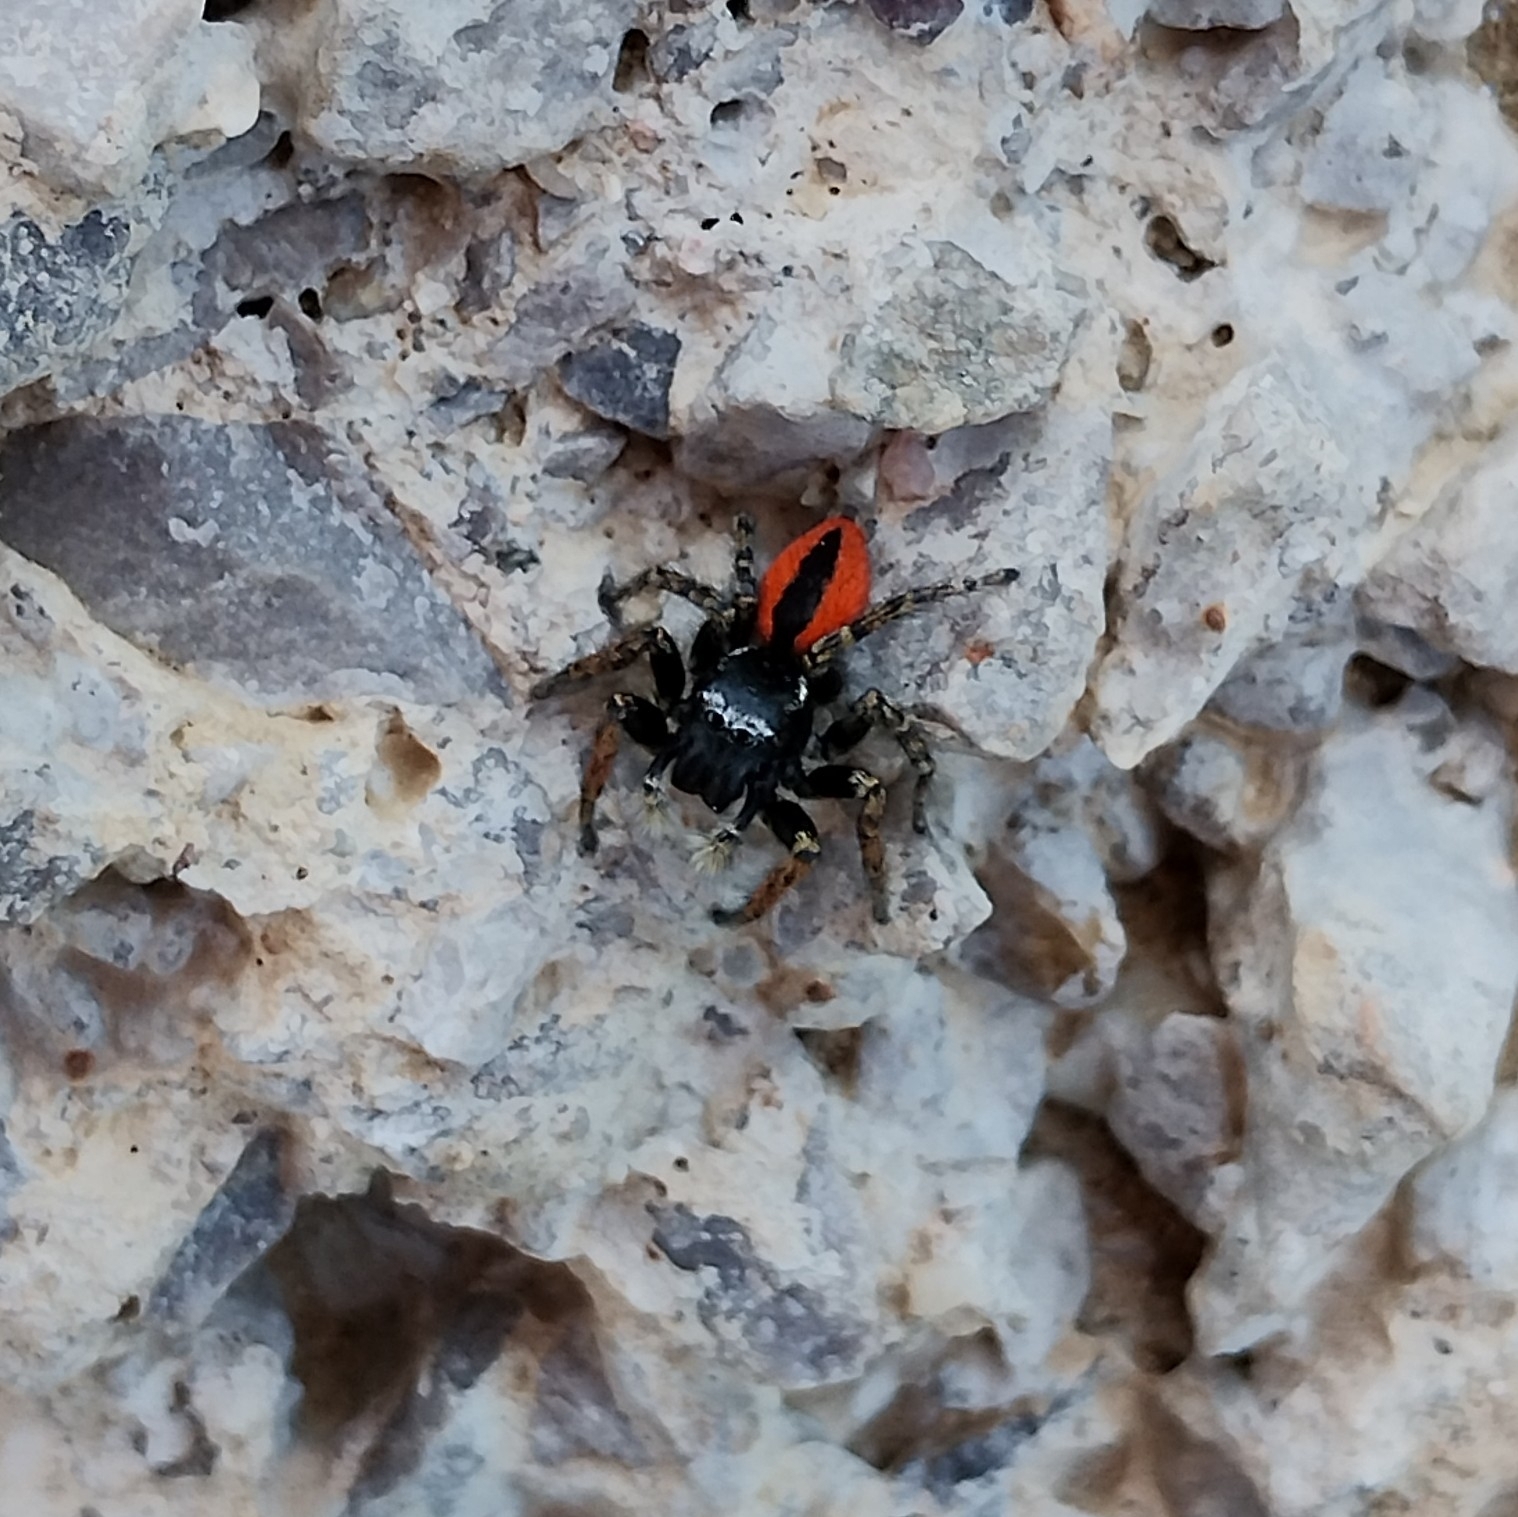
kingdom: Animalia
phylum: Arthropoda
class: Arachnida
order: Araneae
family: Salticidae
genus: Philaeus
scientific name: Philaeus chrysops
